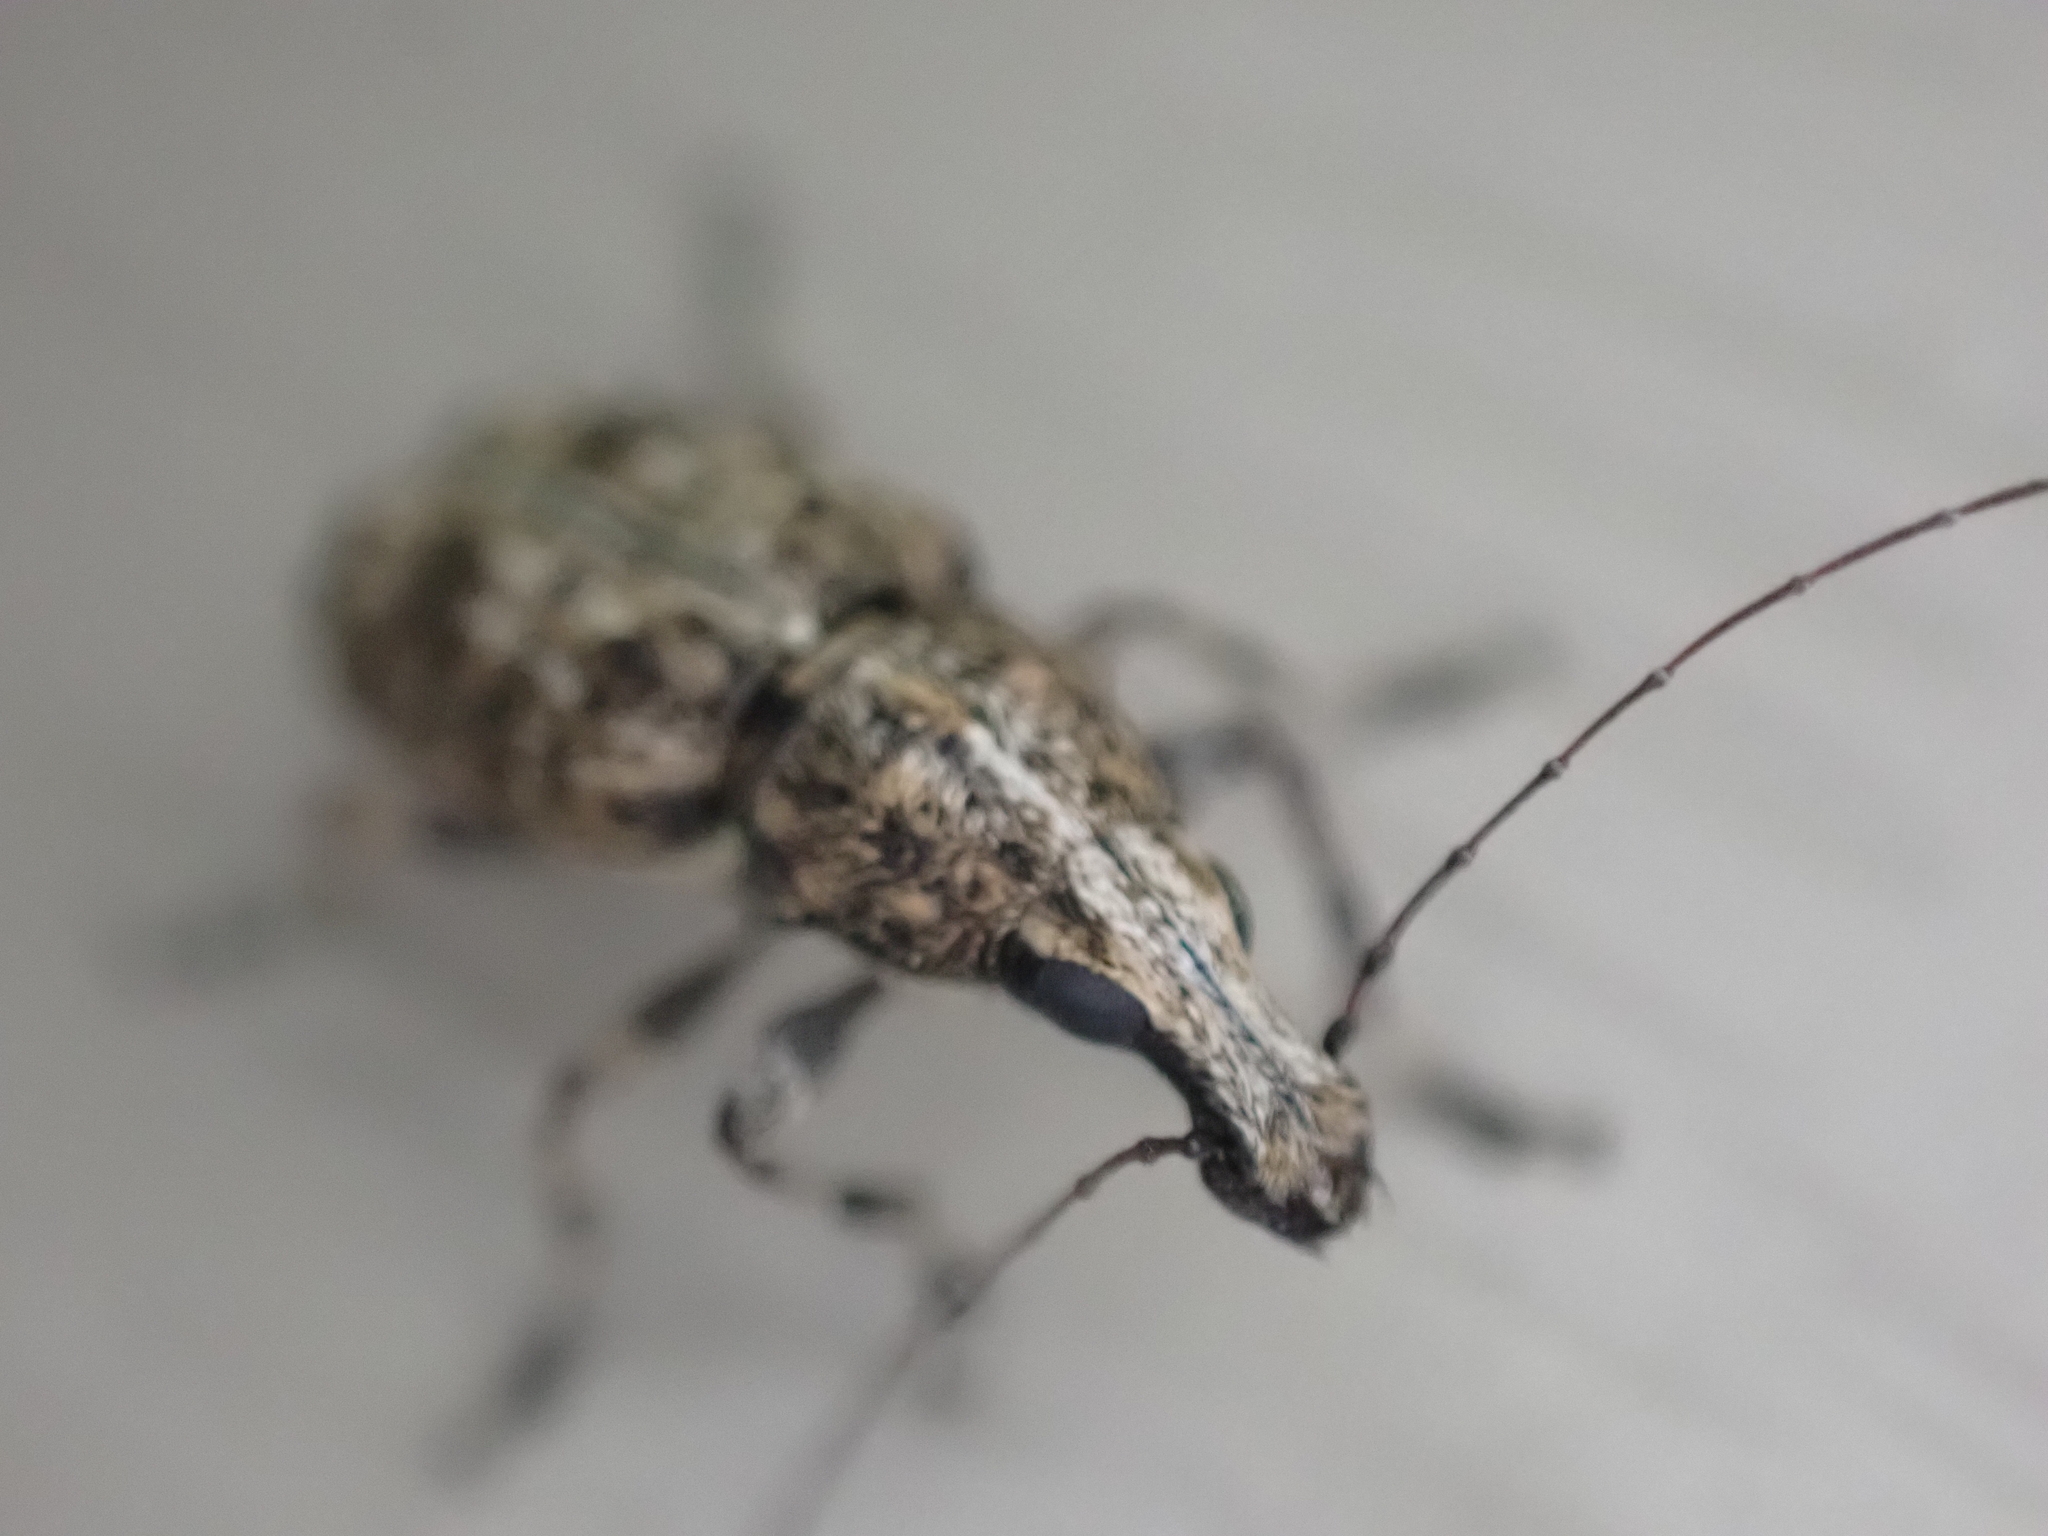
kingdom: Animalia
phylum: Arthropoda
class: Insecta
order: Coleoptera
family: Anthribidae
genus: Meconemus
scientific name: Meconemus infuscatus
